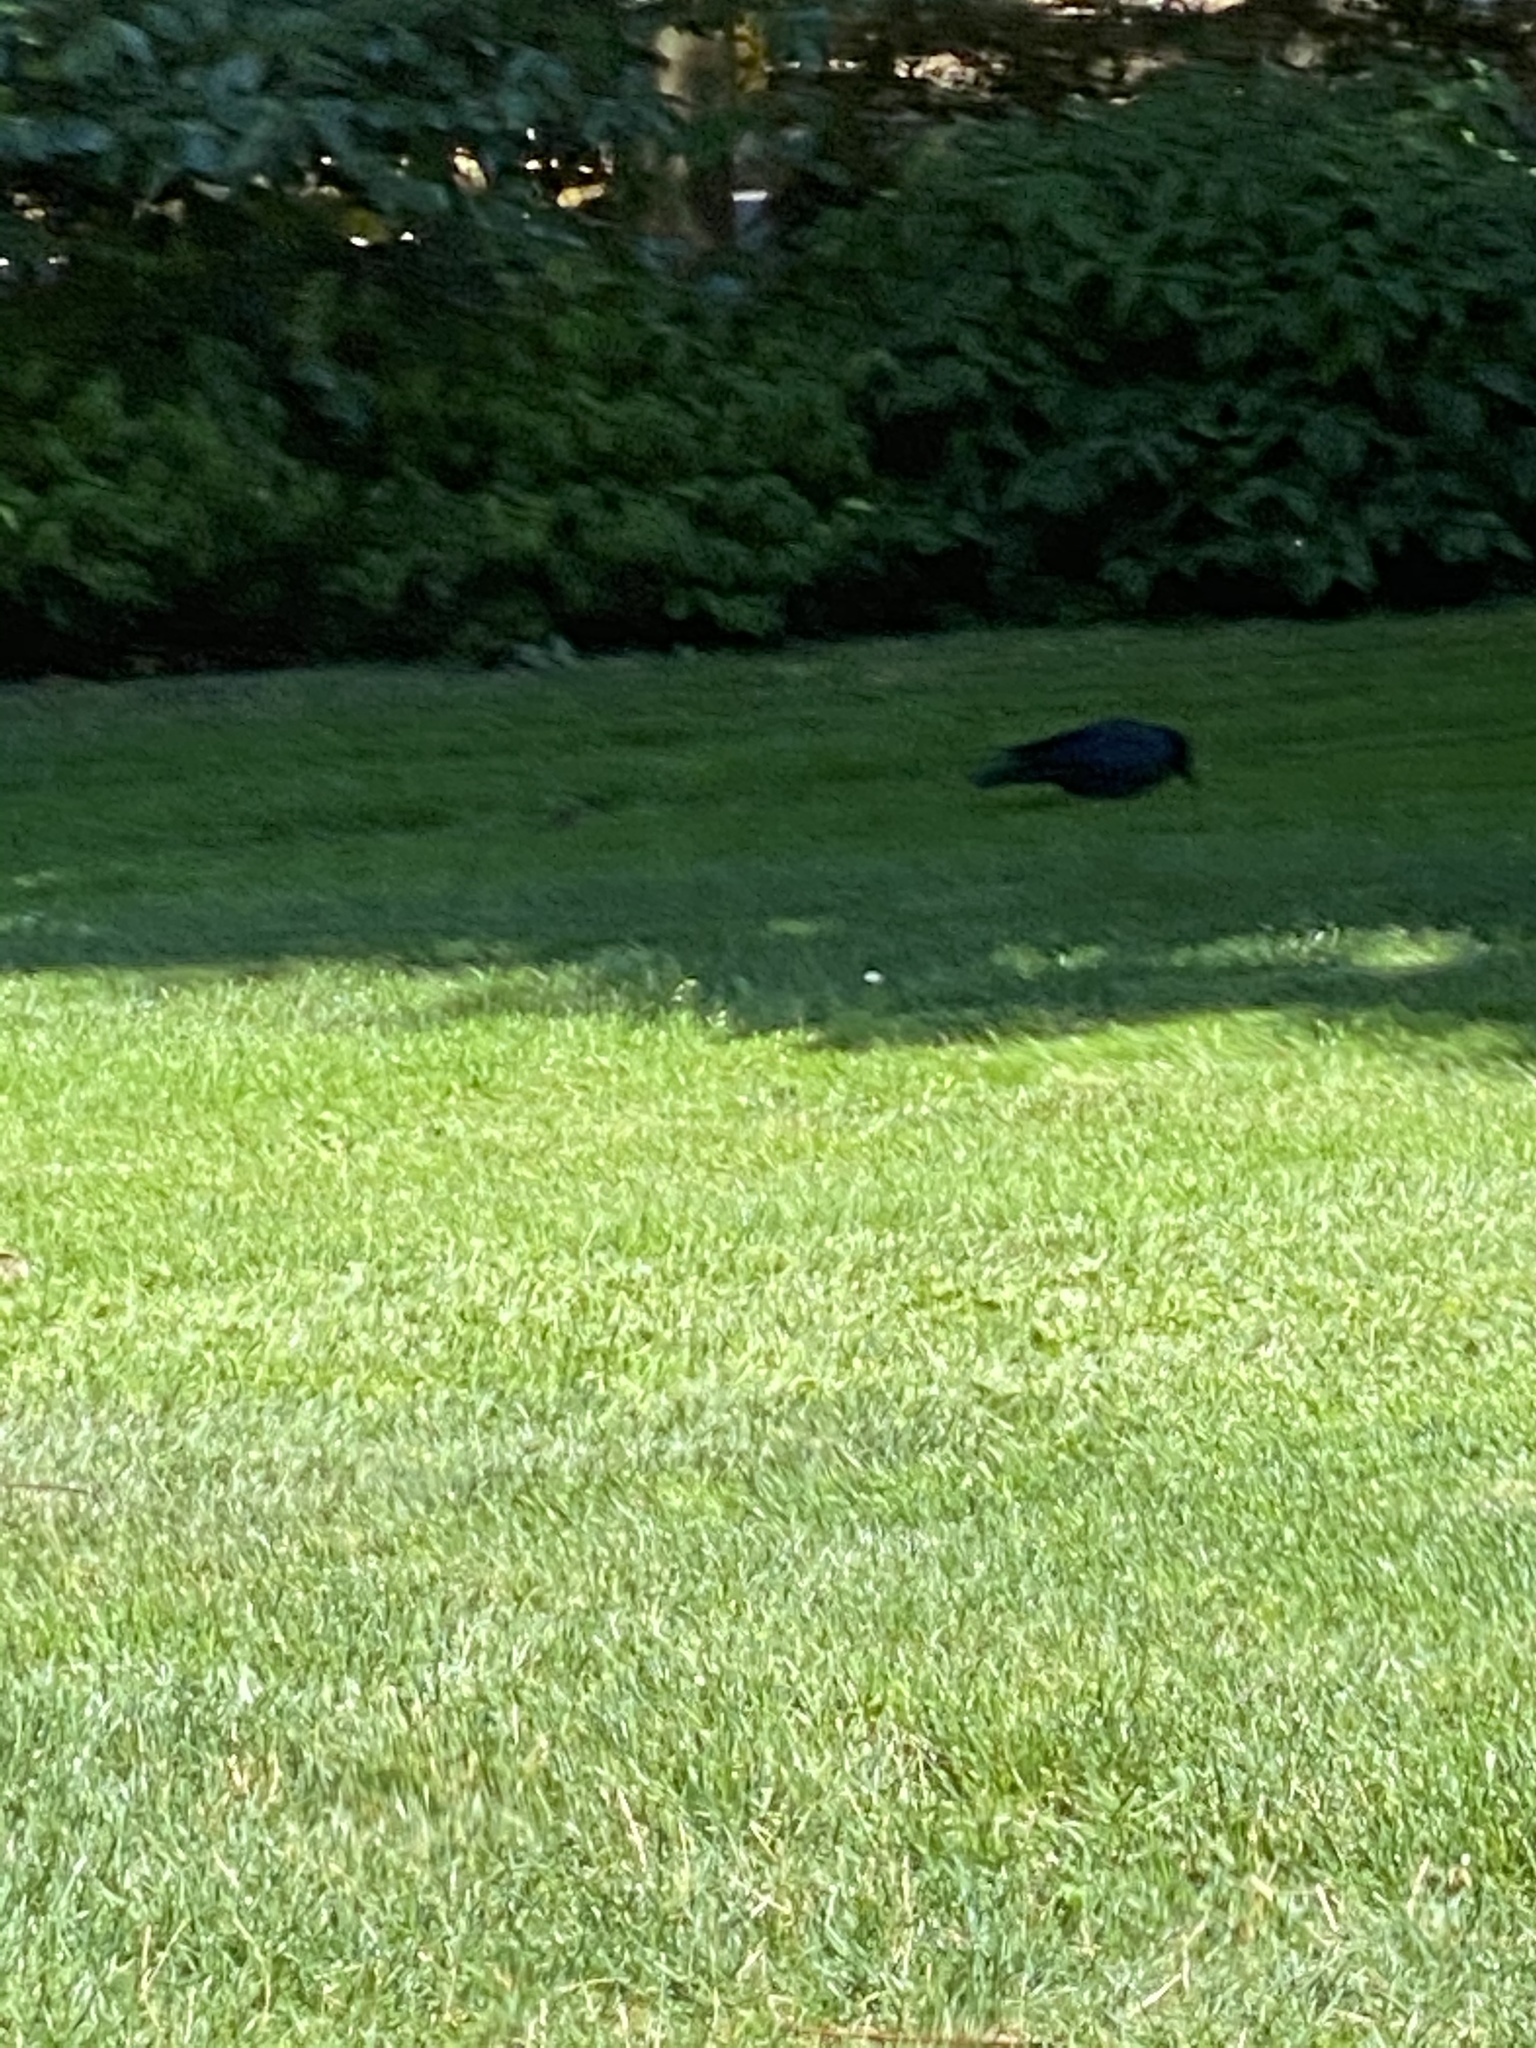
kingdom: Animalia
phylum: Chordata
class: Aves
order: Passeriformes
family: Corvidae
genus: Corvus
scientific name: Corvus brachyrhynchos
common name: American crow
